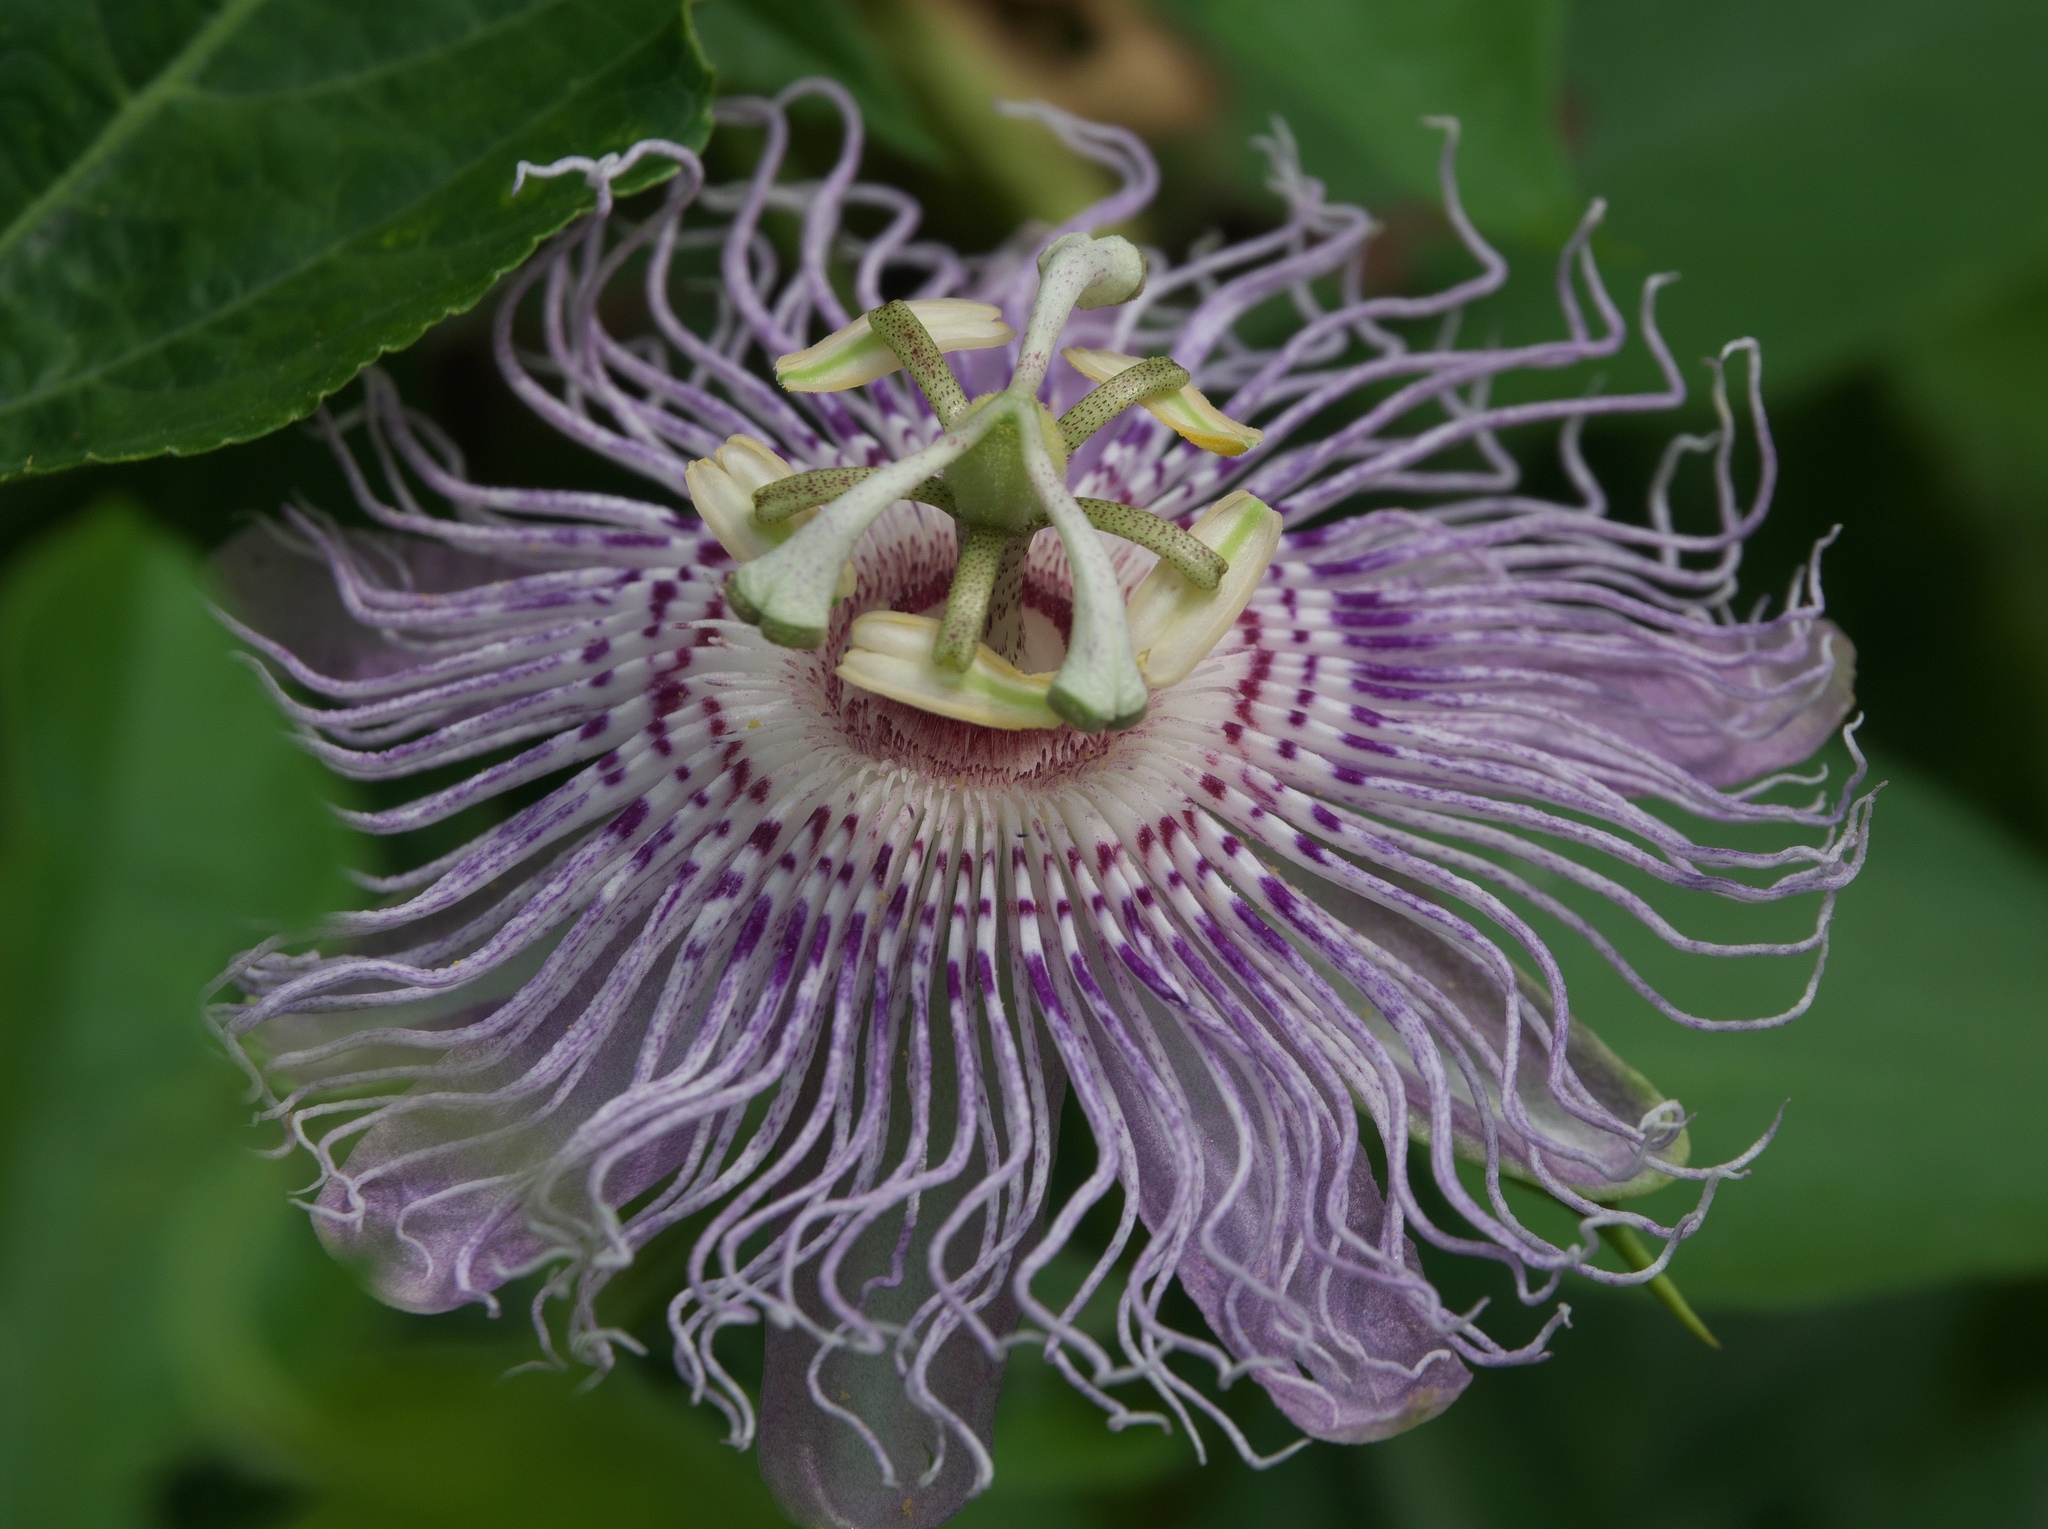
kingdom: Plantae
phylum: Tracheophyta
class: Magnoliopsida
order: Malpighiales
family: Passifloraceae
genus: Passiflora
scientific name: Passiflora incarnata
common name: Apricot-vine
